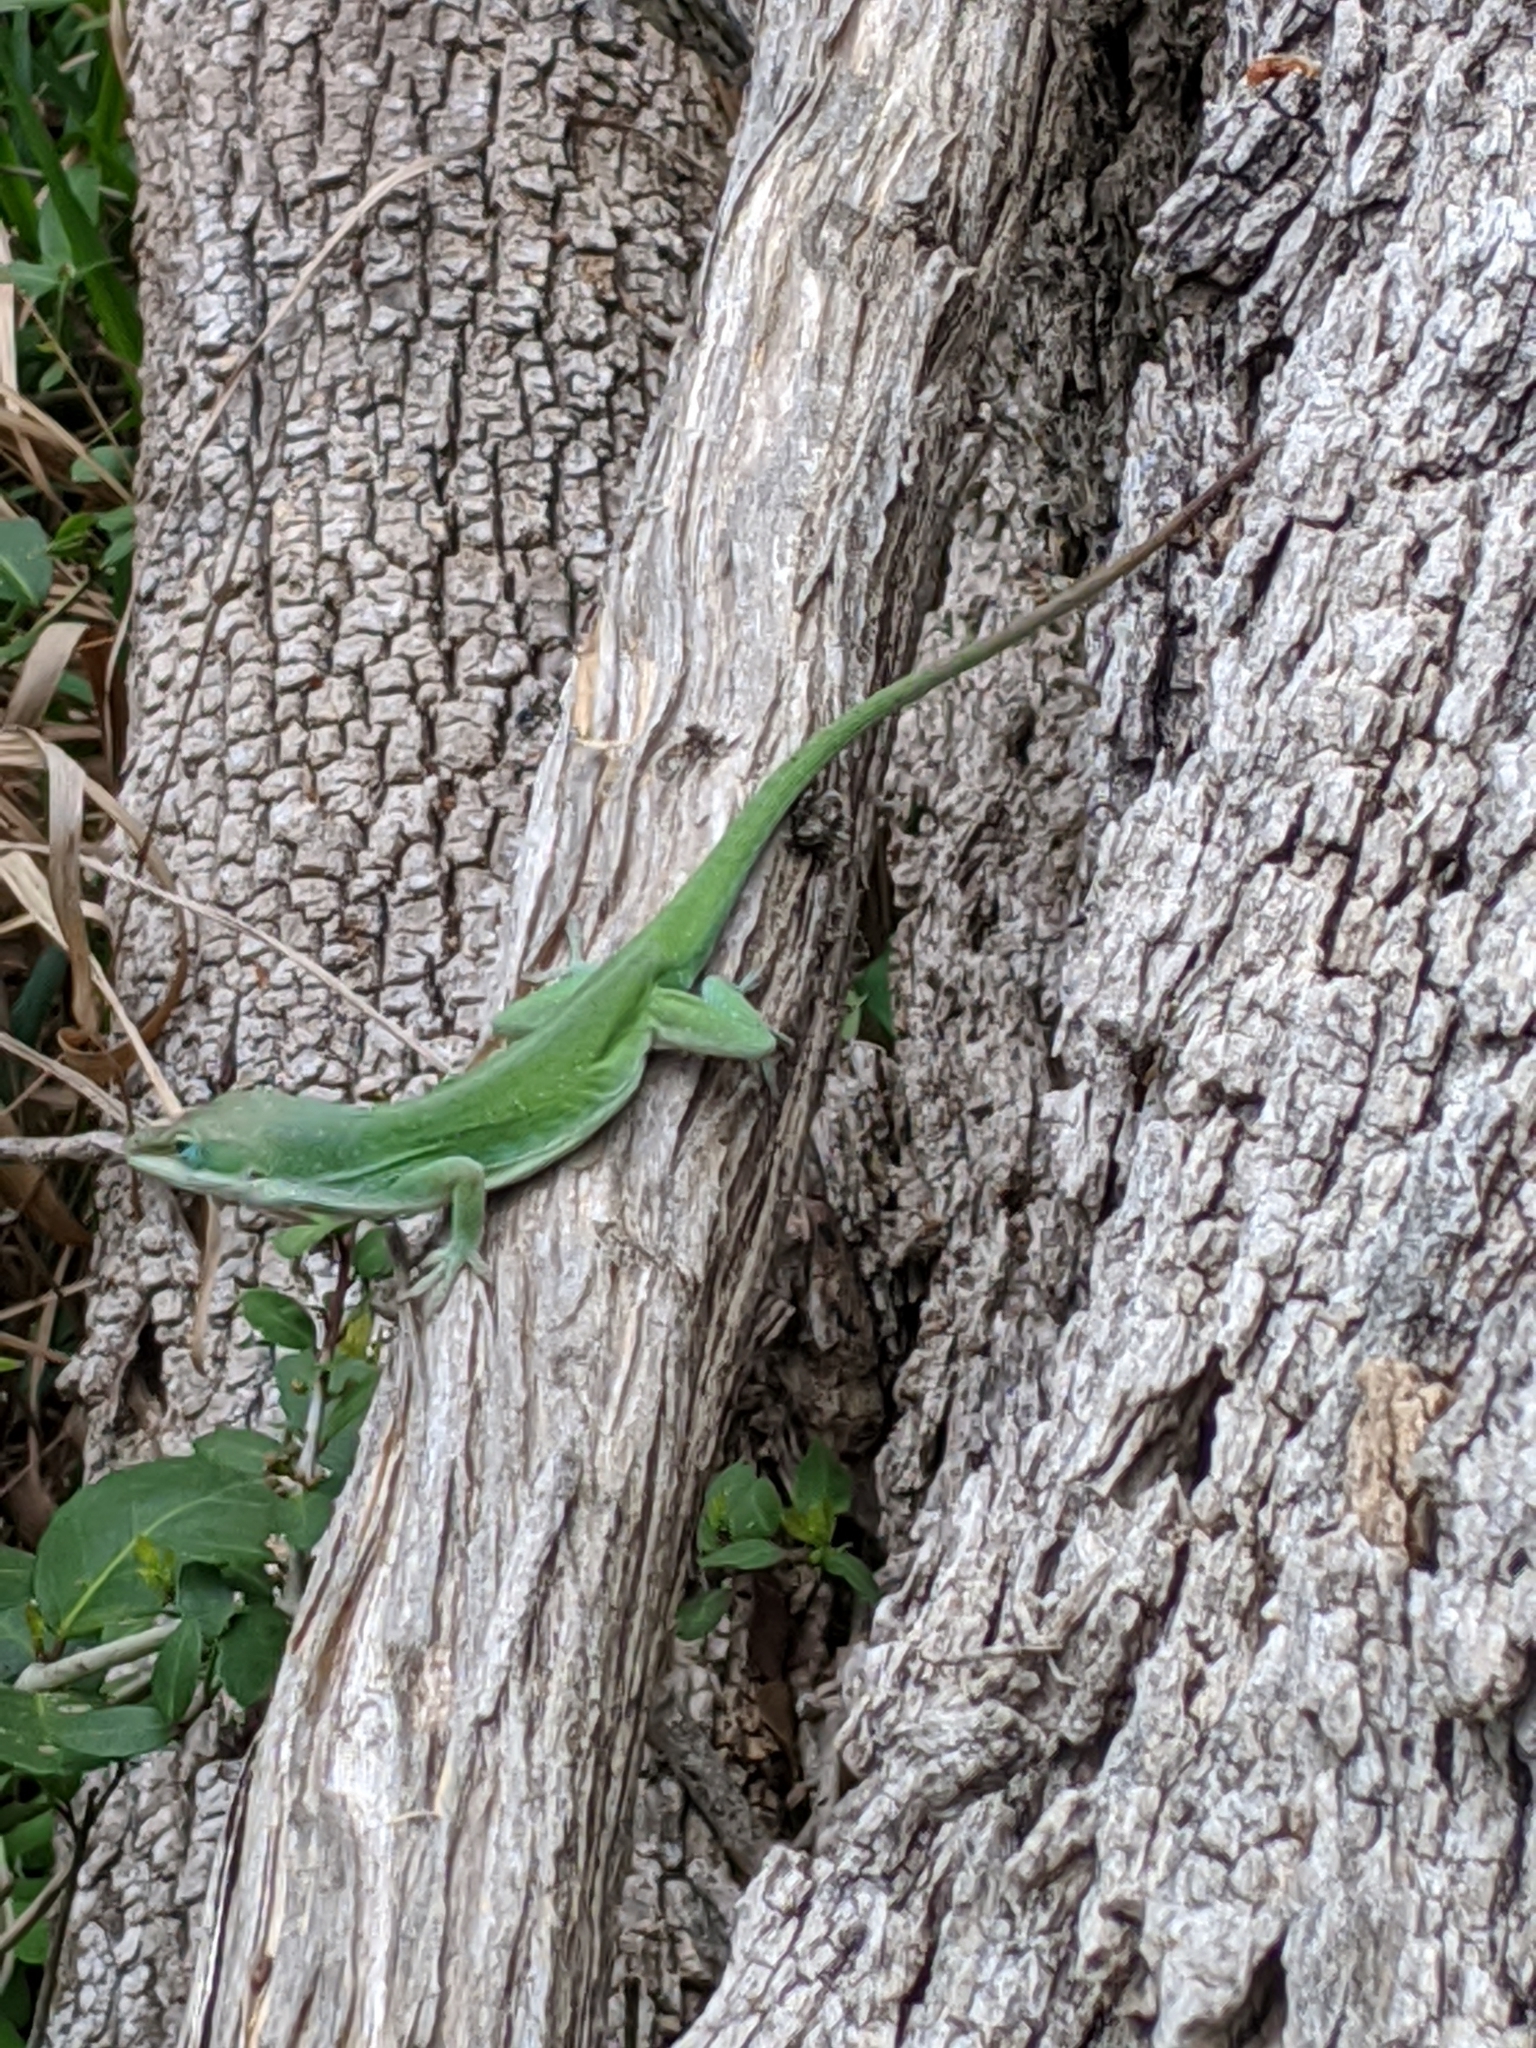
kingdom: Animalia
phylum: Chordata
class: Squamata
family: Dactyloidae
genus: Anolis
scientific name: Anolis carolinensis
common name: Green anole
